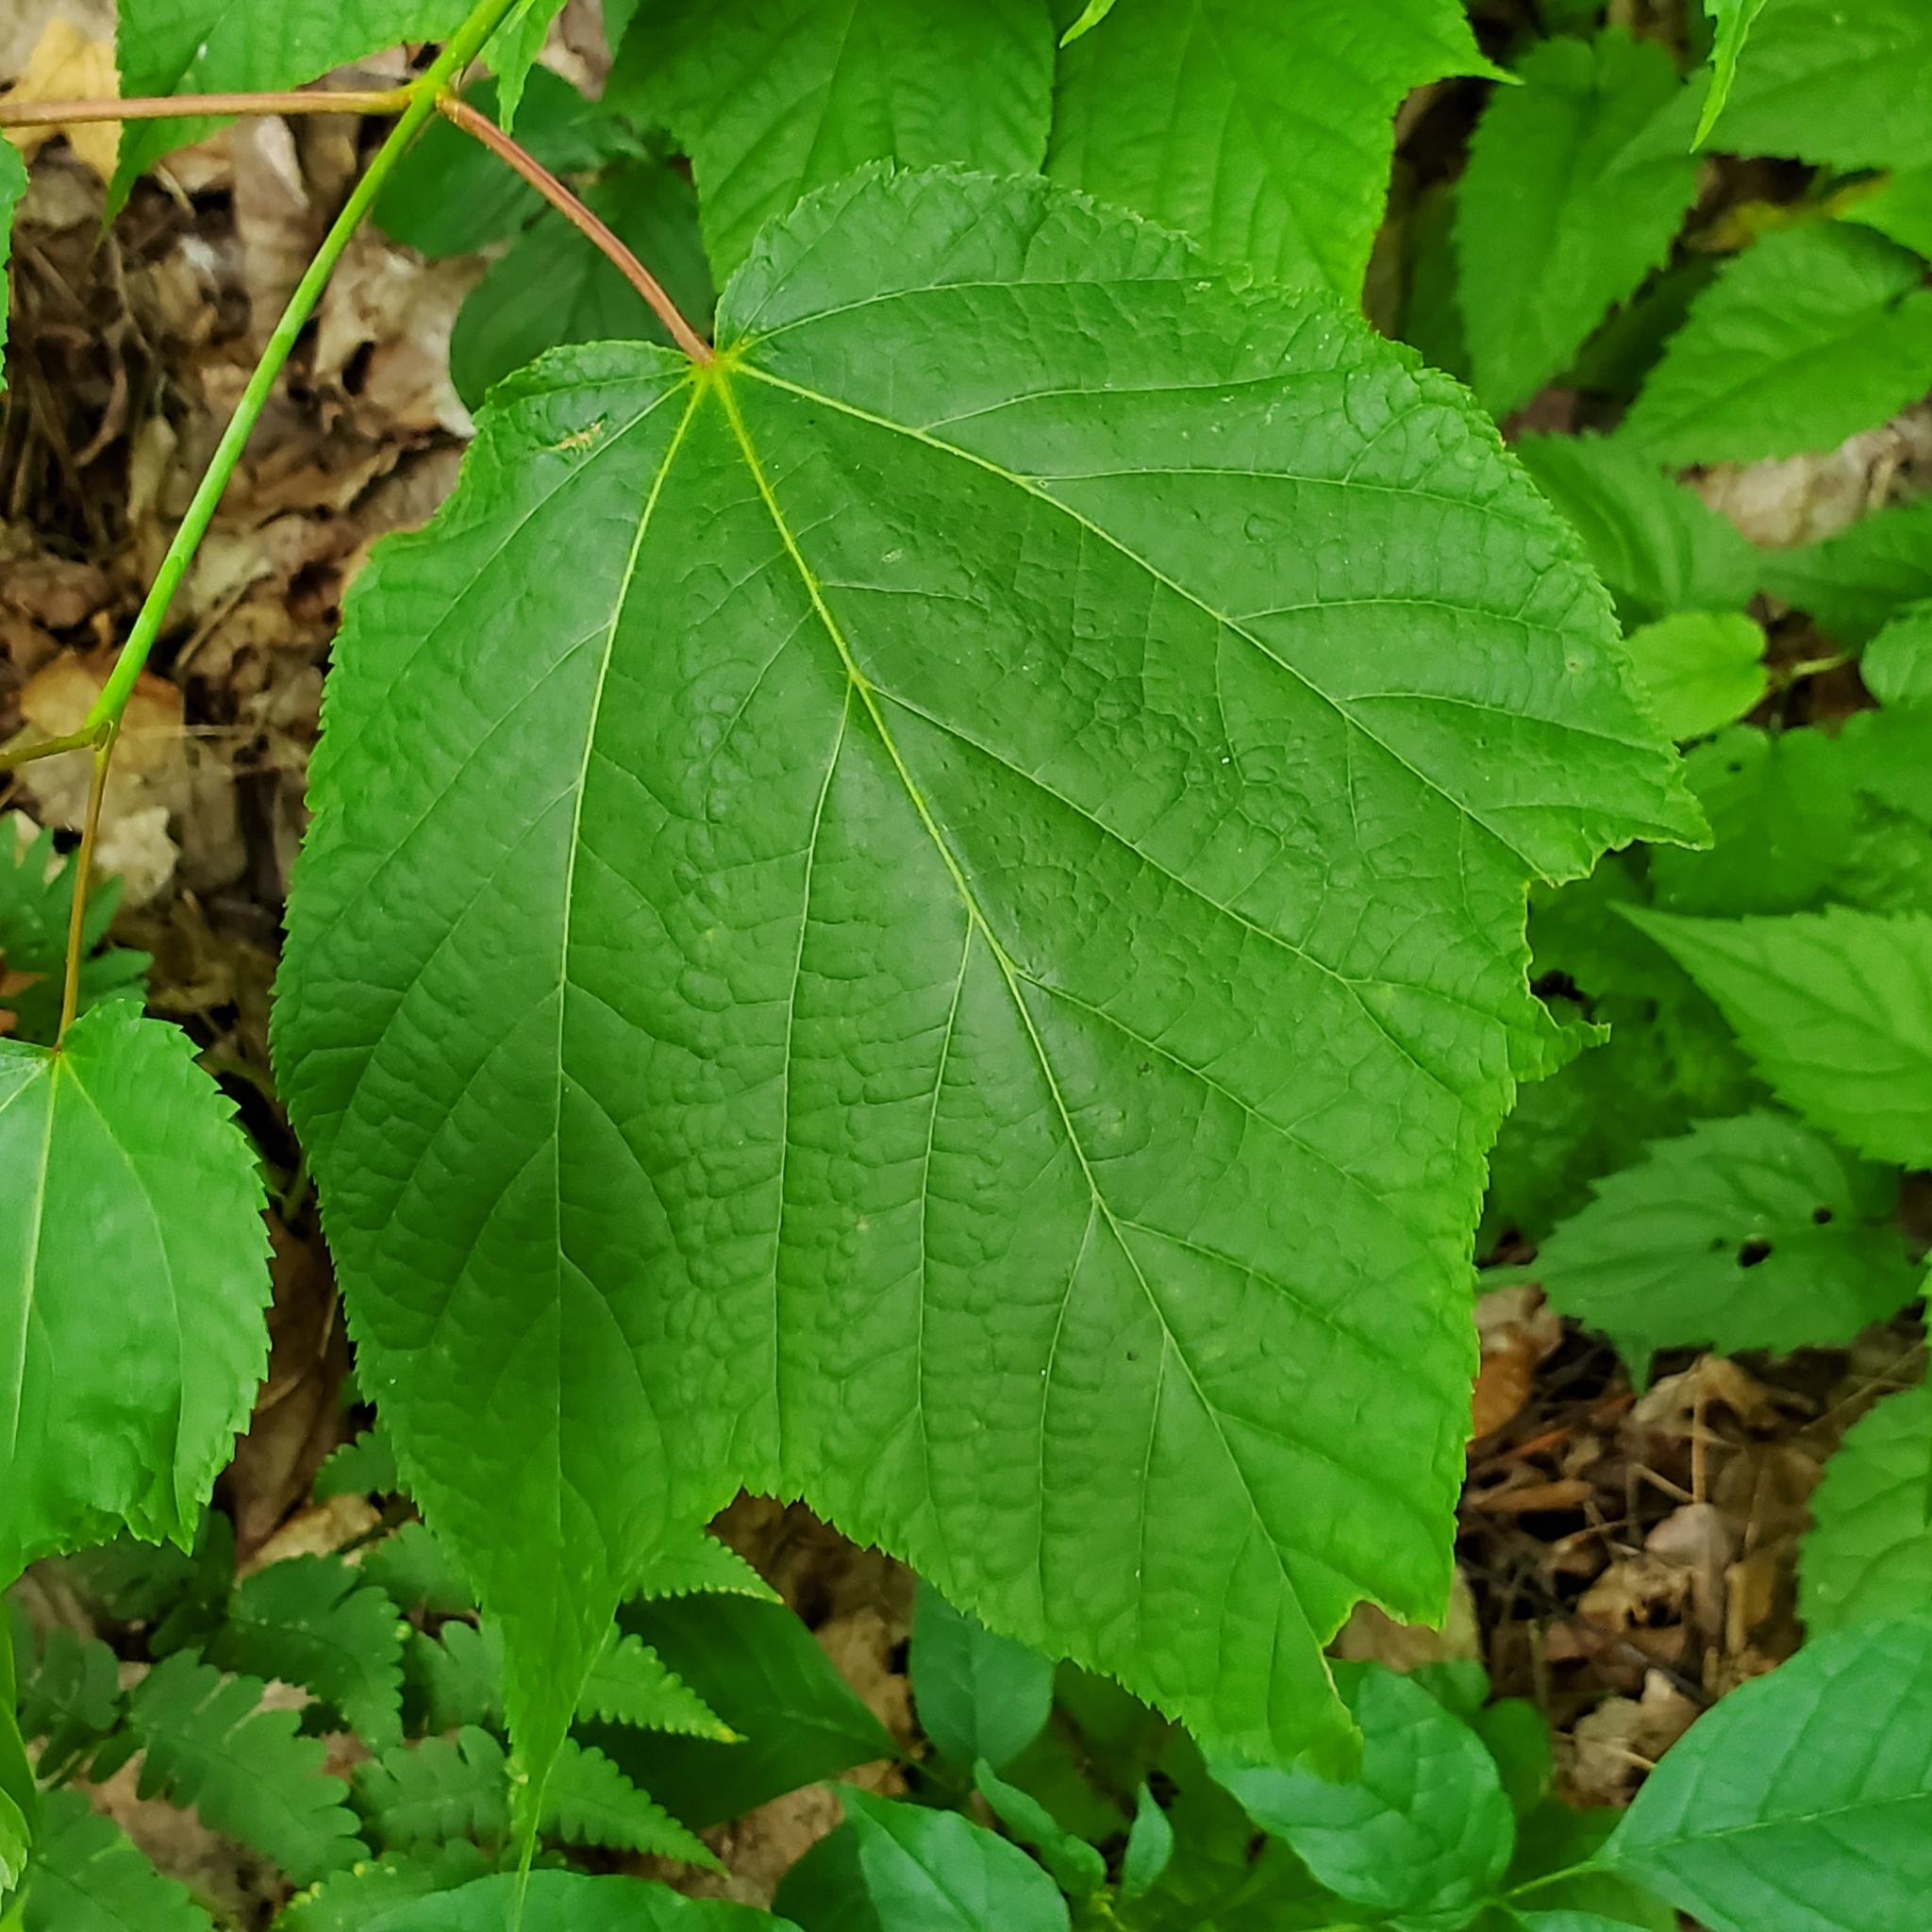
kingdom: Plantae
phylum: Tracheophyta
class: Magnoliopsida
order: Sapindales
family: Sapindaceae
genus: Acer
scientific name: Acer pensylvanicum
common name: Moosewood
